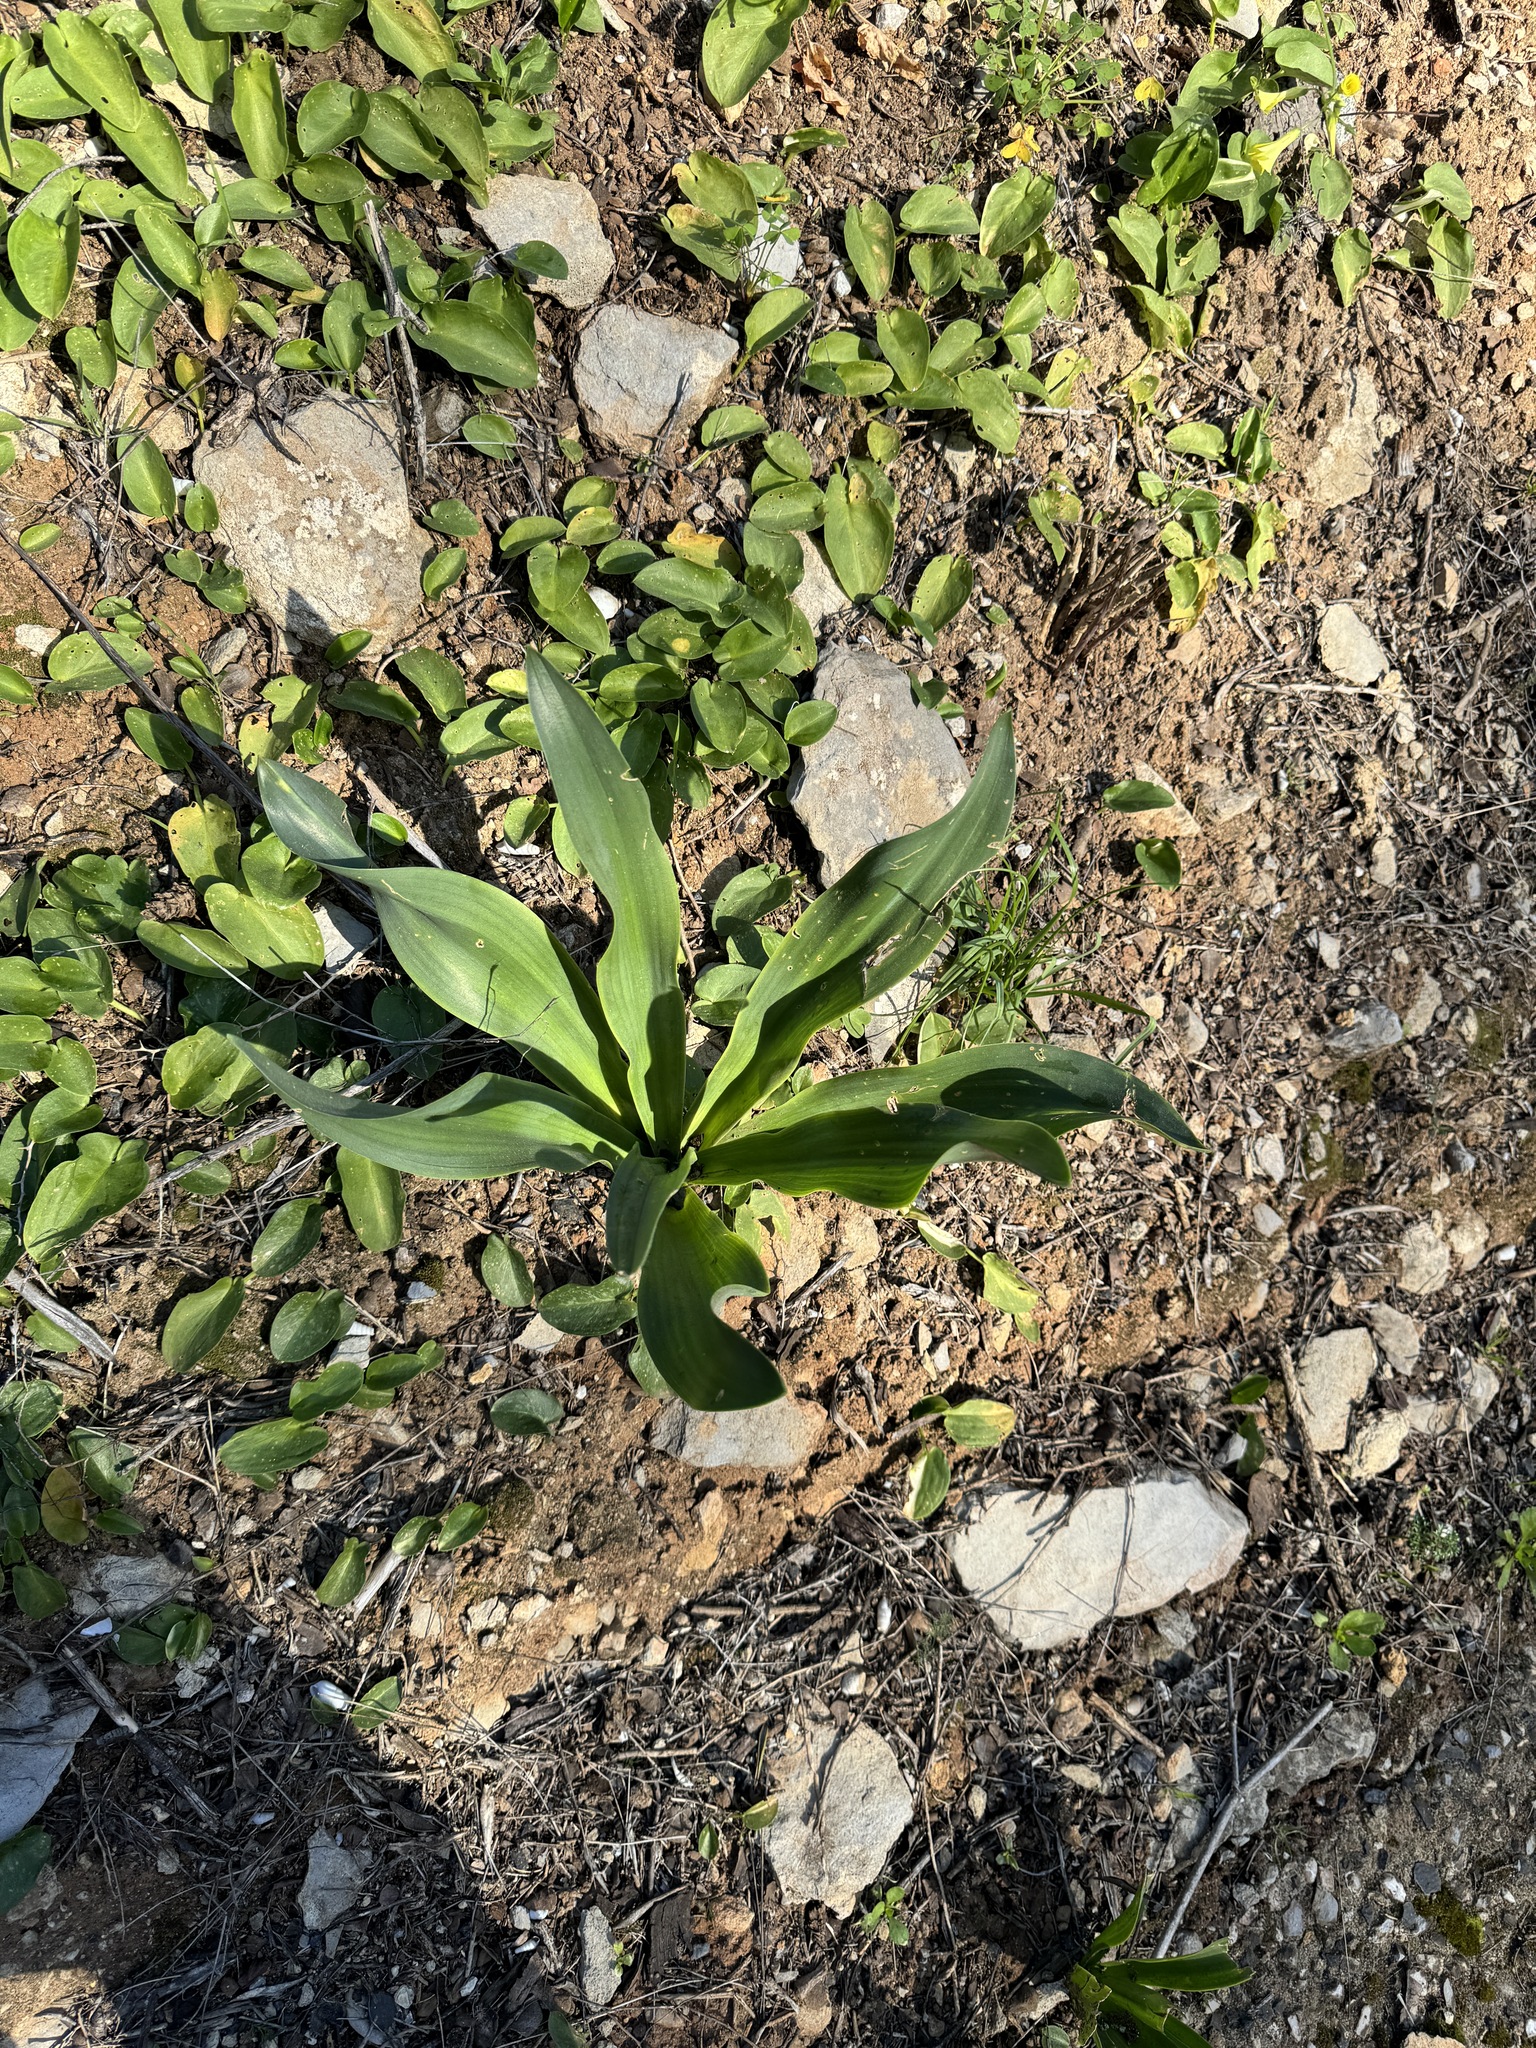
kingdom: Plantae
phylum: Tracheophyta
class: Liliopsida
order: Asparagales
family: Asparagaceae
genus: Drimia
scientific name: Drimia maritima
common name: Maritime squill
